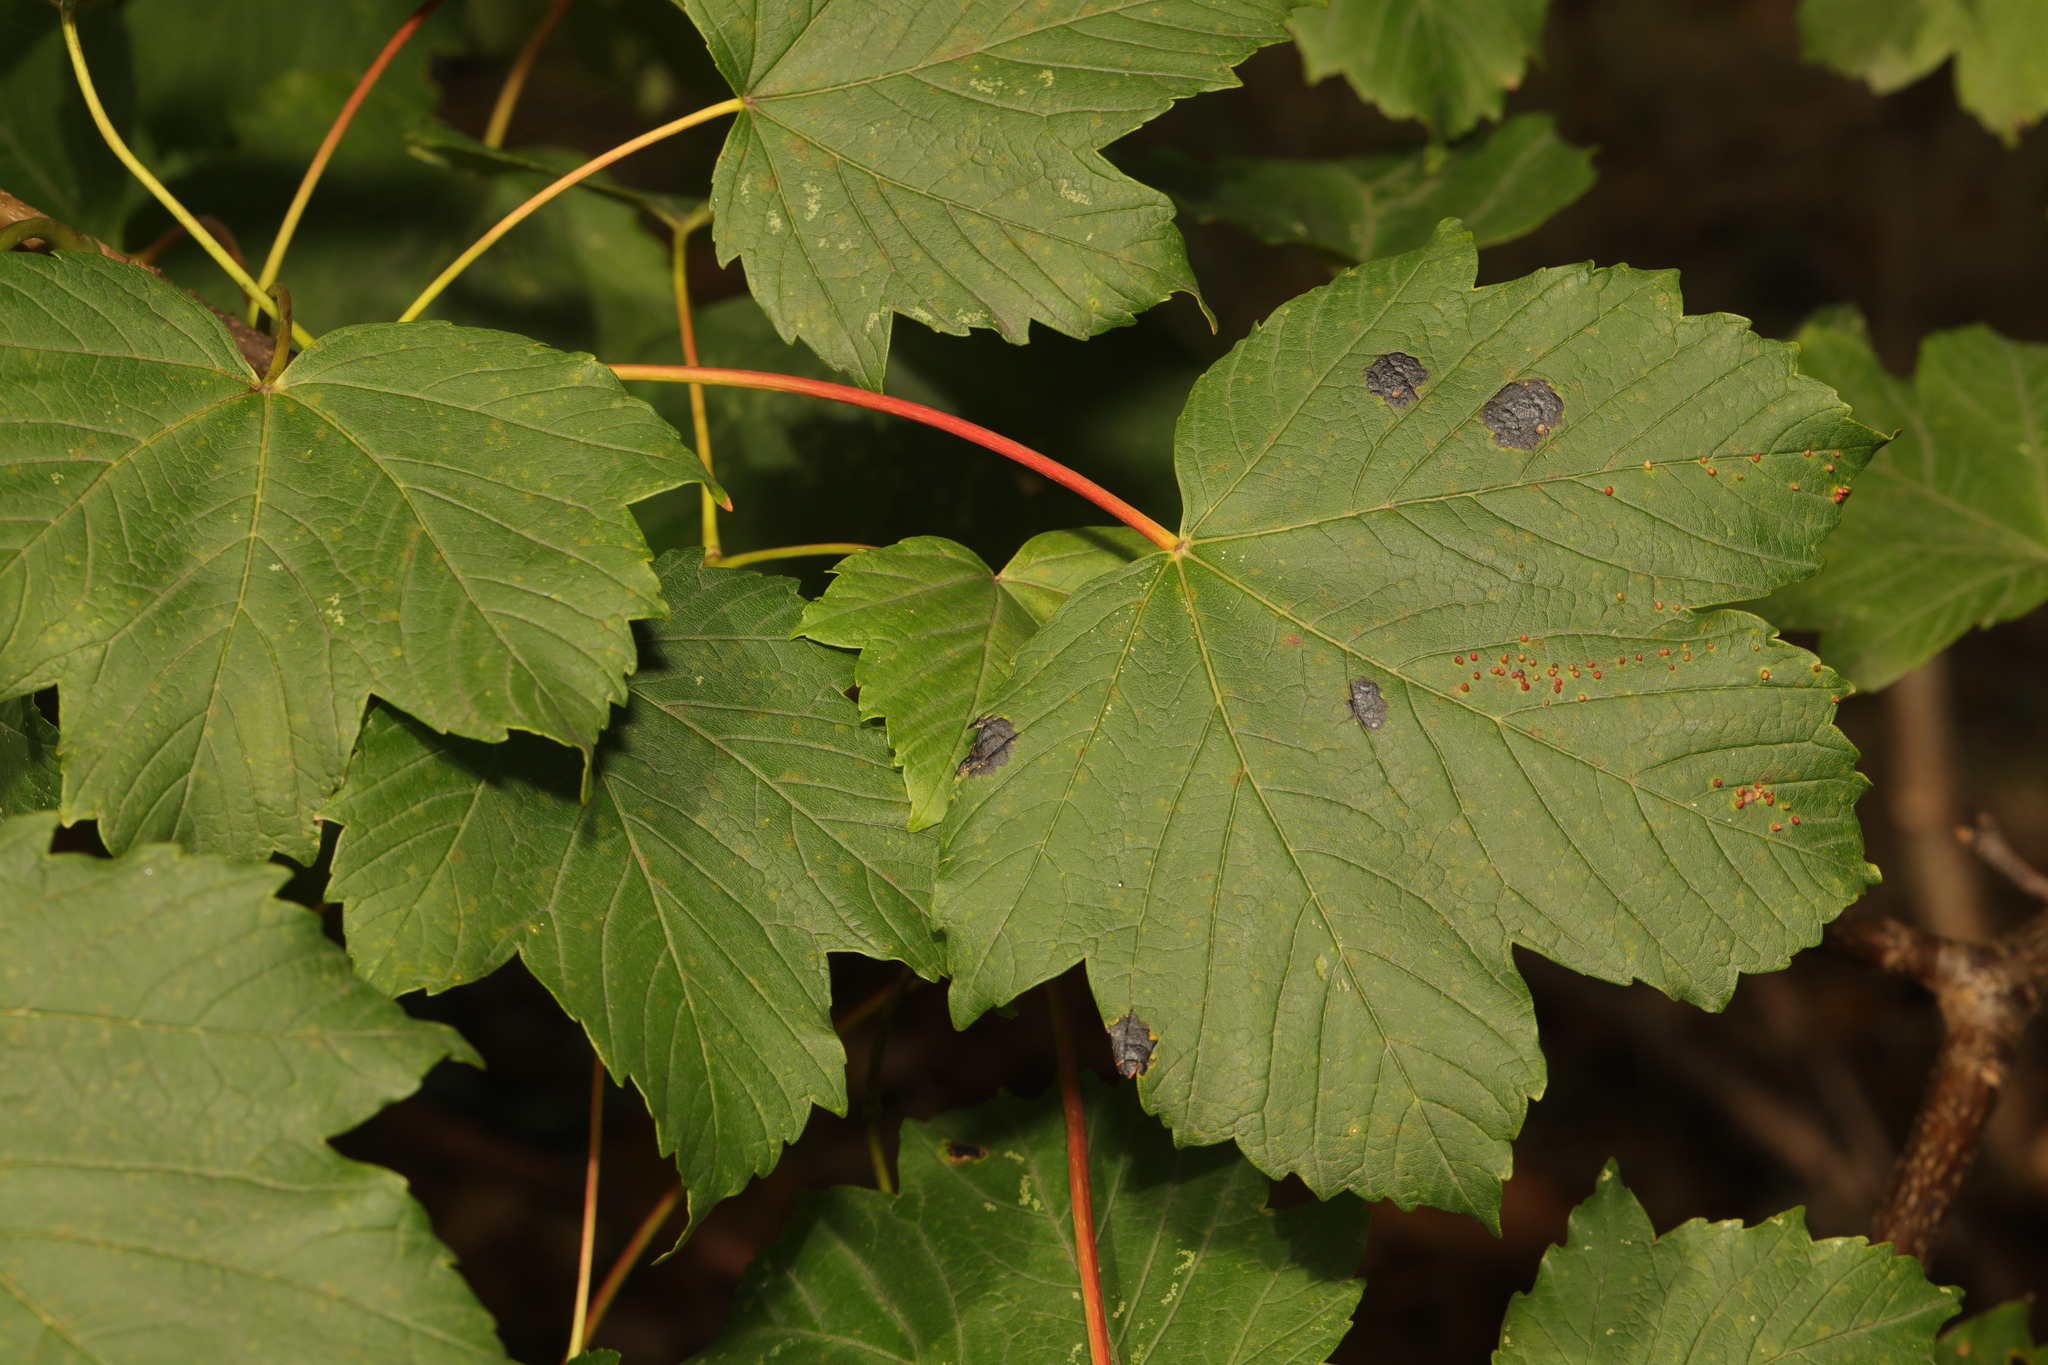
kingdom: Plantae
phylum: Tracheophyta
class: Magnoliopsida
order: Sapindales
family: Sapindaceae
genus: Acer
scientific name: Acer pseudoplatanus
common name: Sycamore
